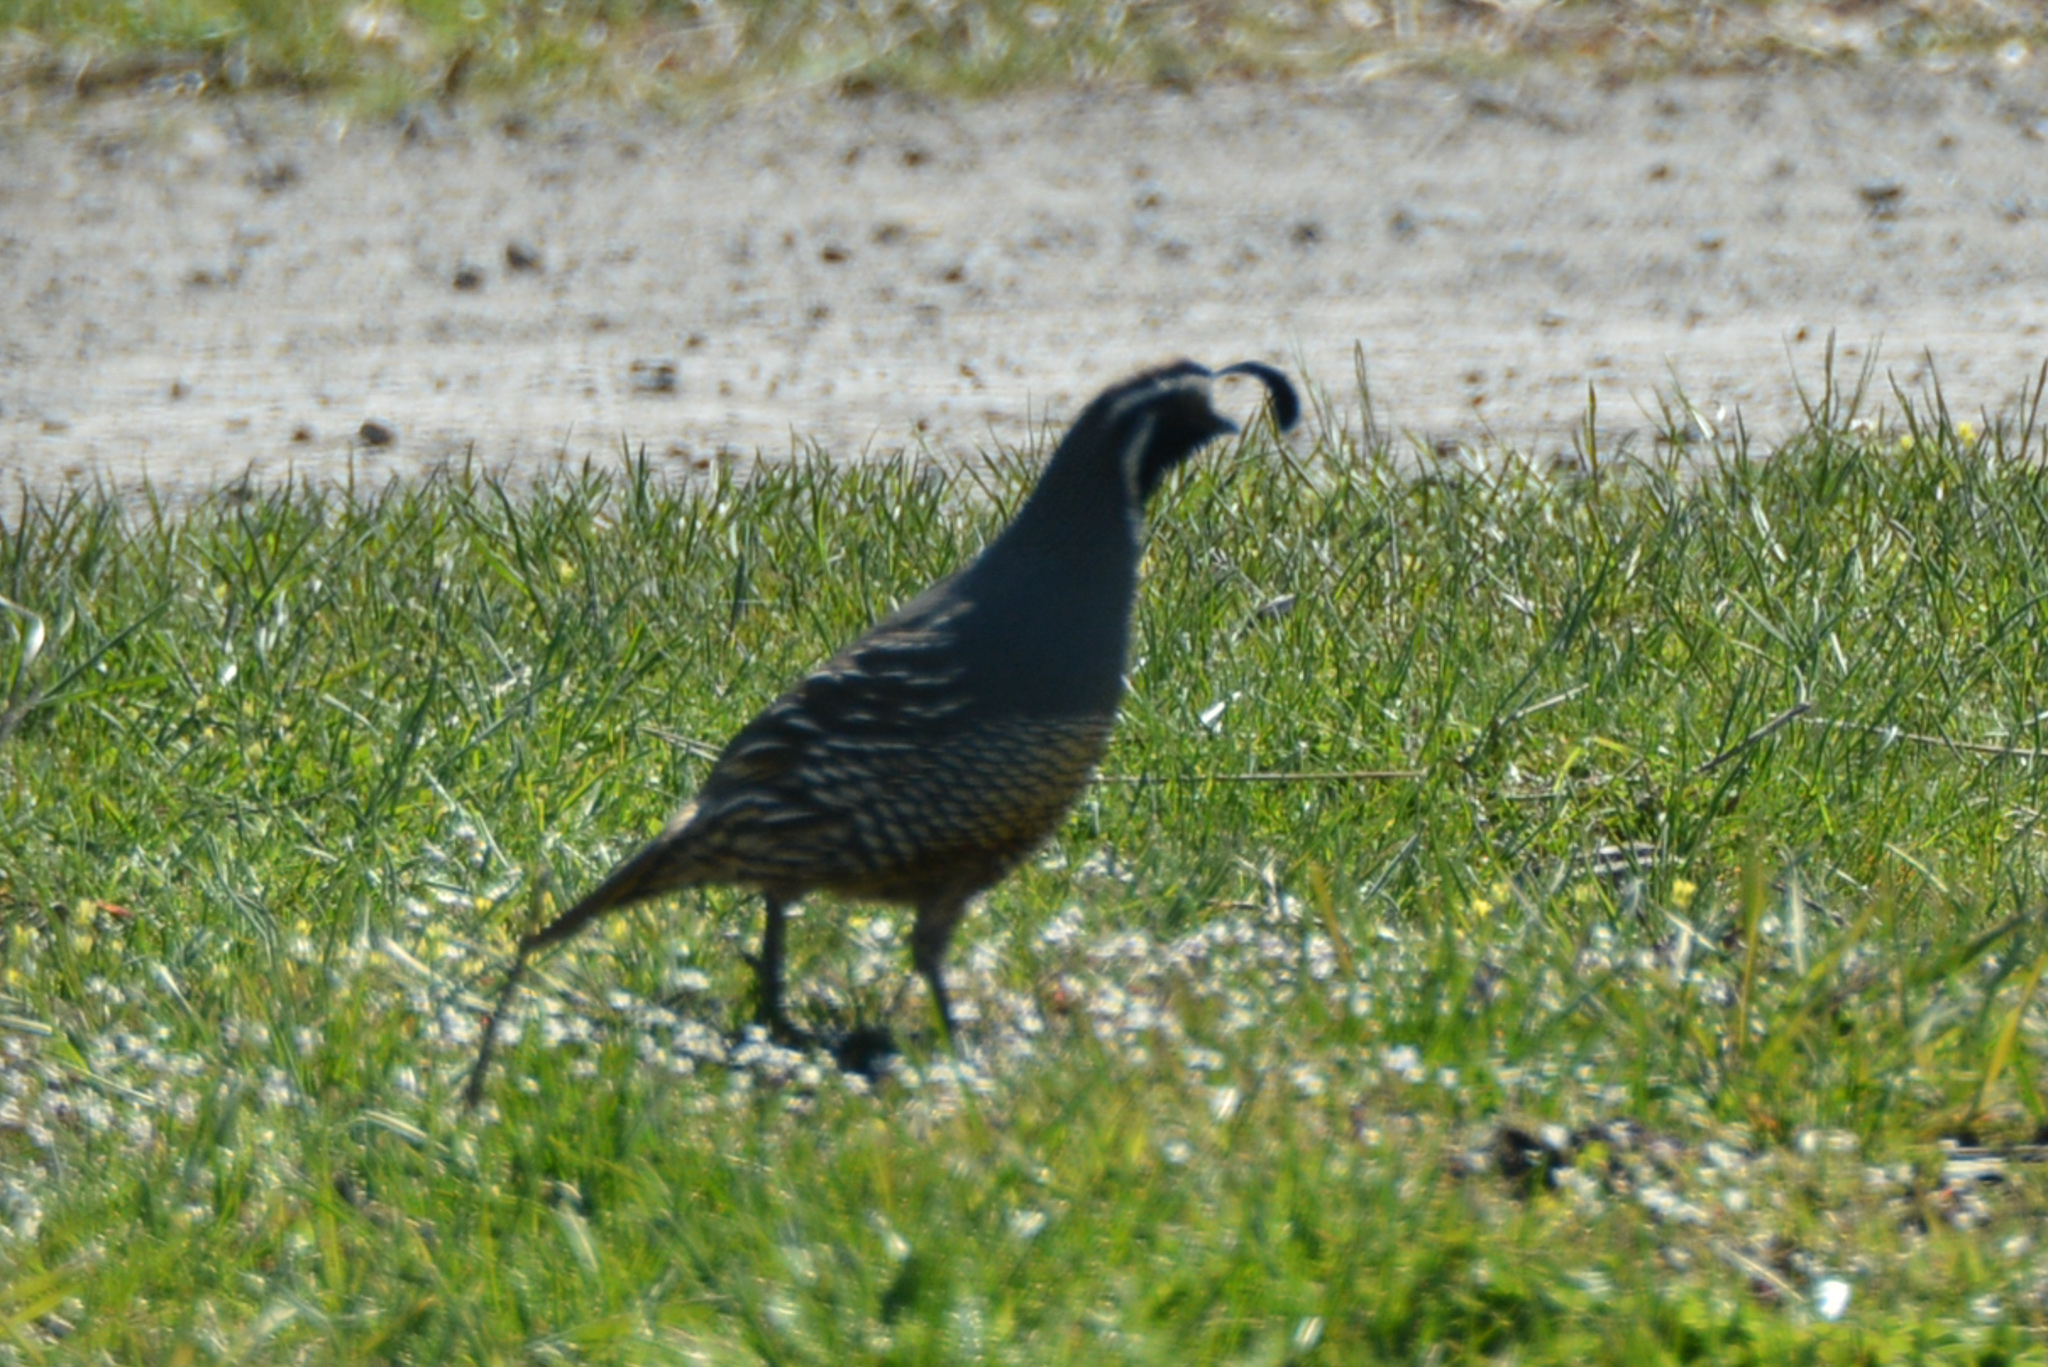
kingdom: Animalia
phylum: Chordata
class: Aves
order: Galliformes
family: Odontophoridae
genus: Callipepla
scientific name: Callipepla californica
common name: California quail
